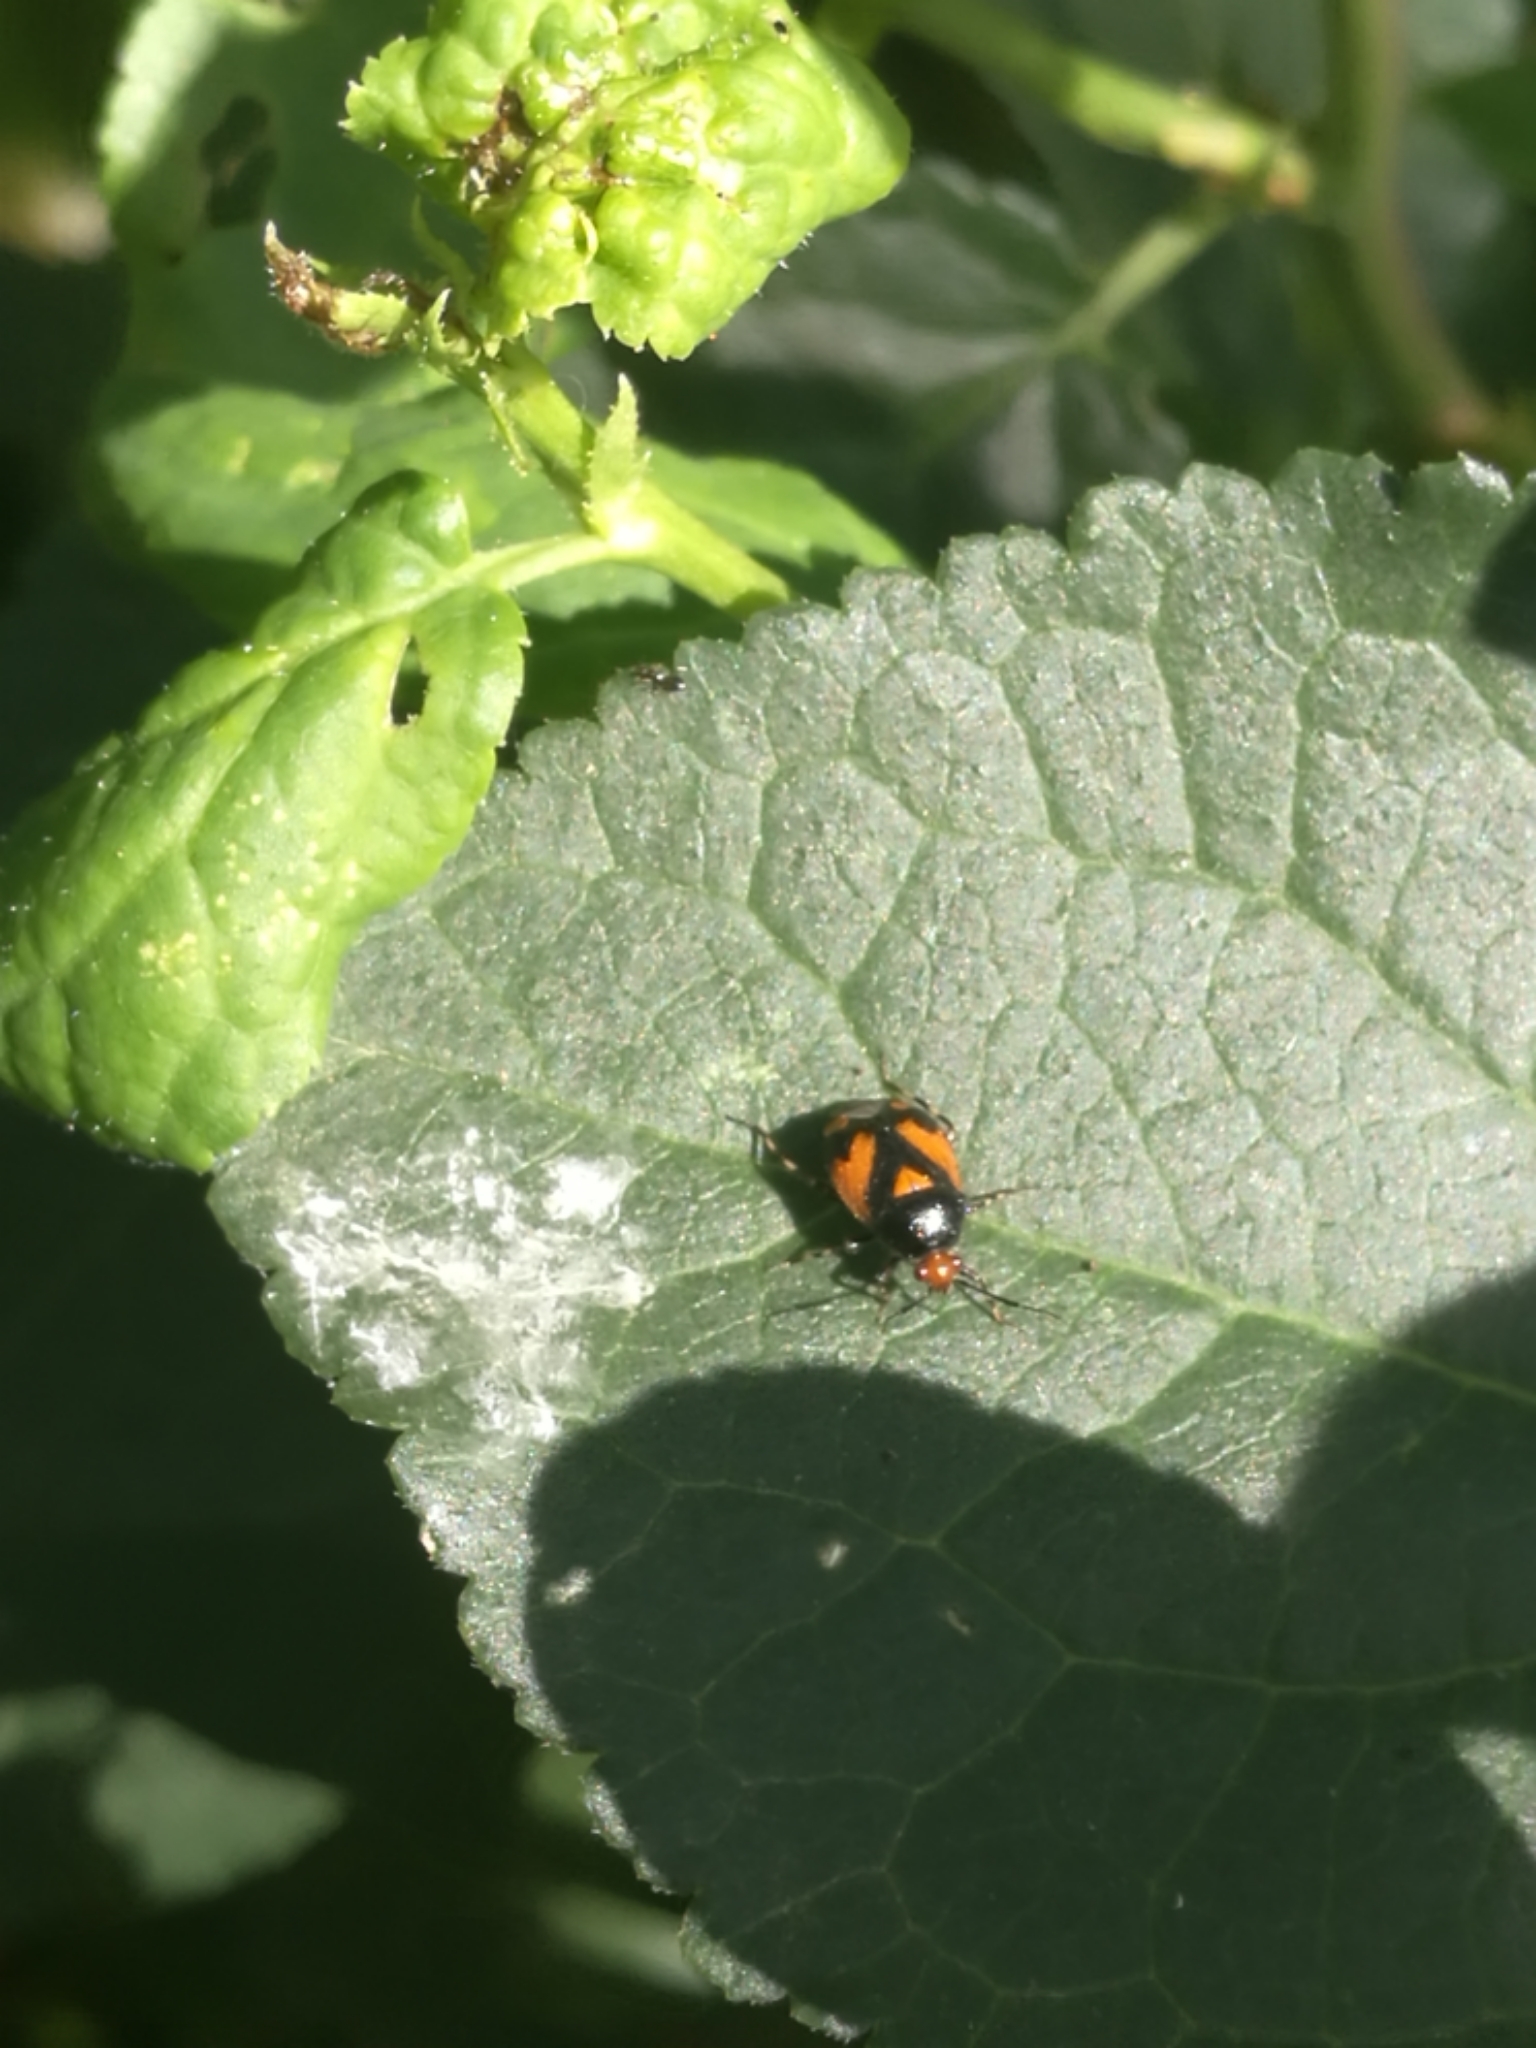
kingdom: Animalia
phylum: Arthropoda
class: Insecta
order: Hemiptera
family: Miridae
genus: Deraeocoris
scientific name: Deraeocoris schach
